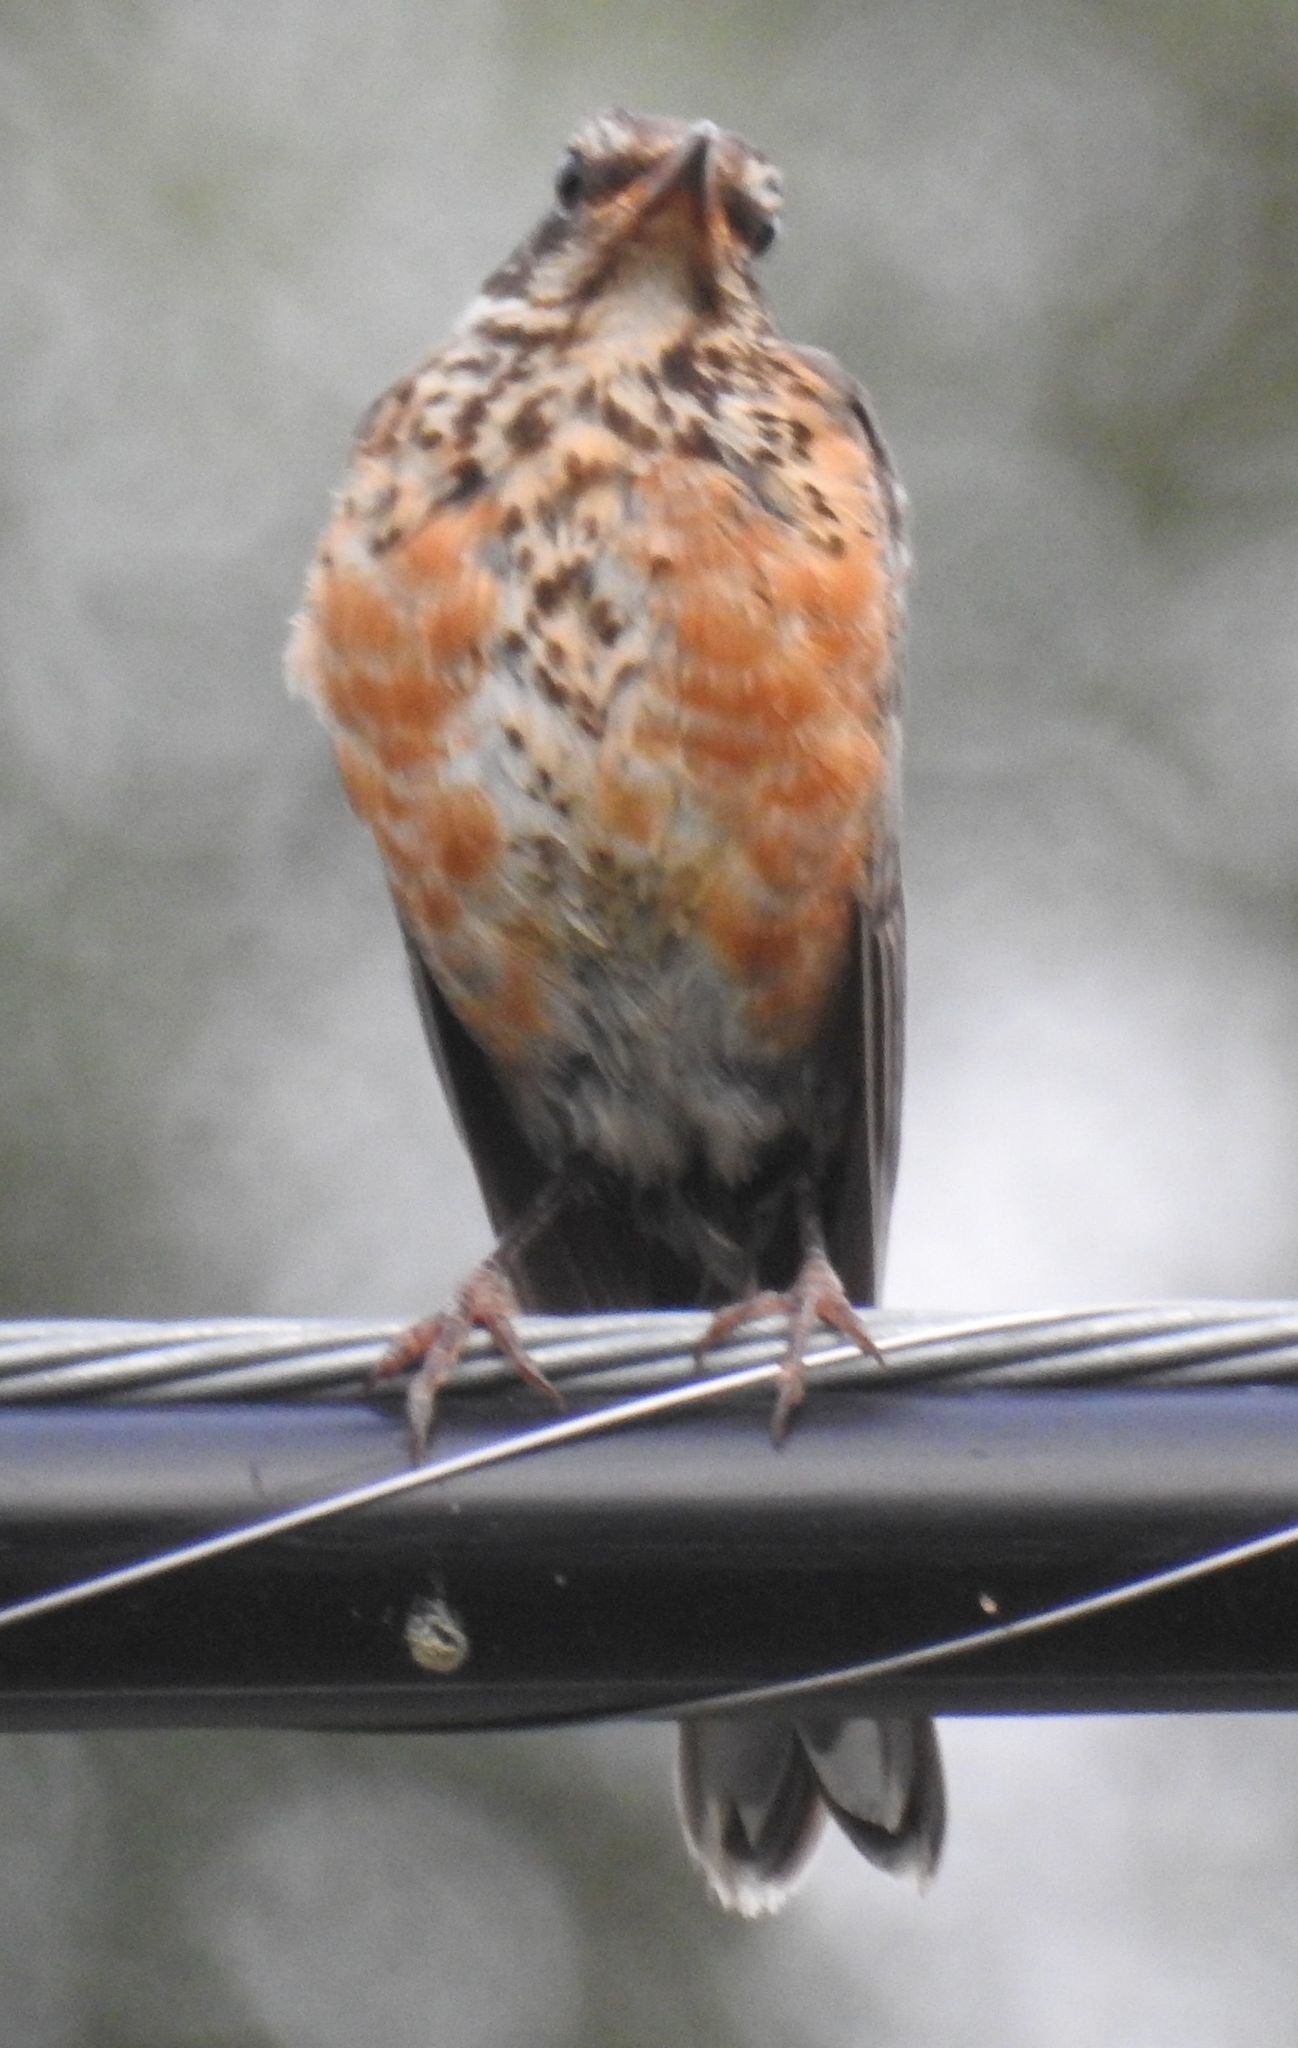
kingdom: Animalia
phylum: Chordata
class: Aves
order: Passeriformes
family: Turdidae
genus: Turdus
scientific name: Turdus migratorius
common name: American robin
